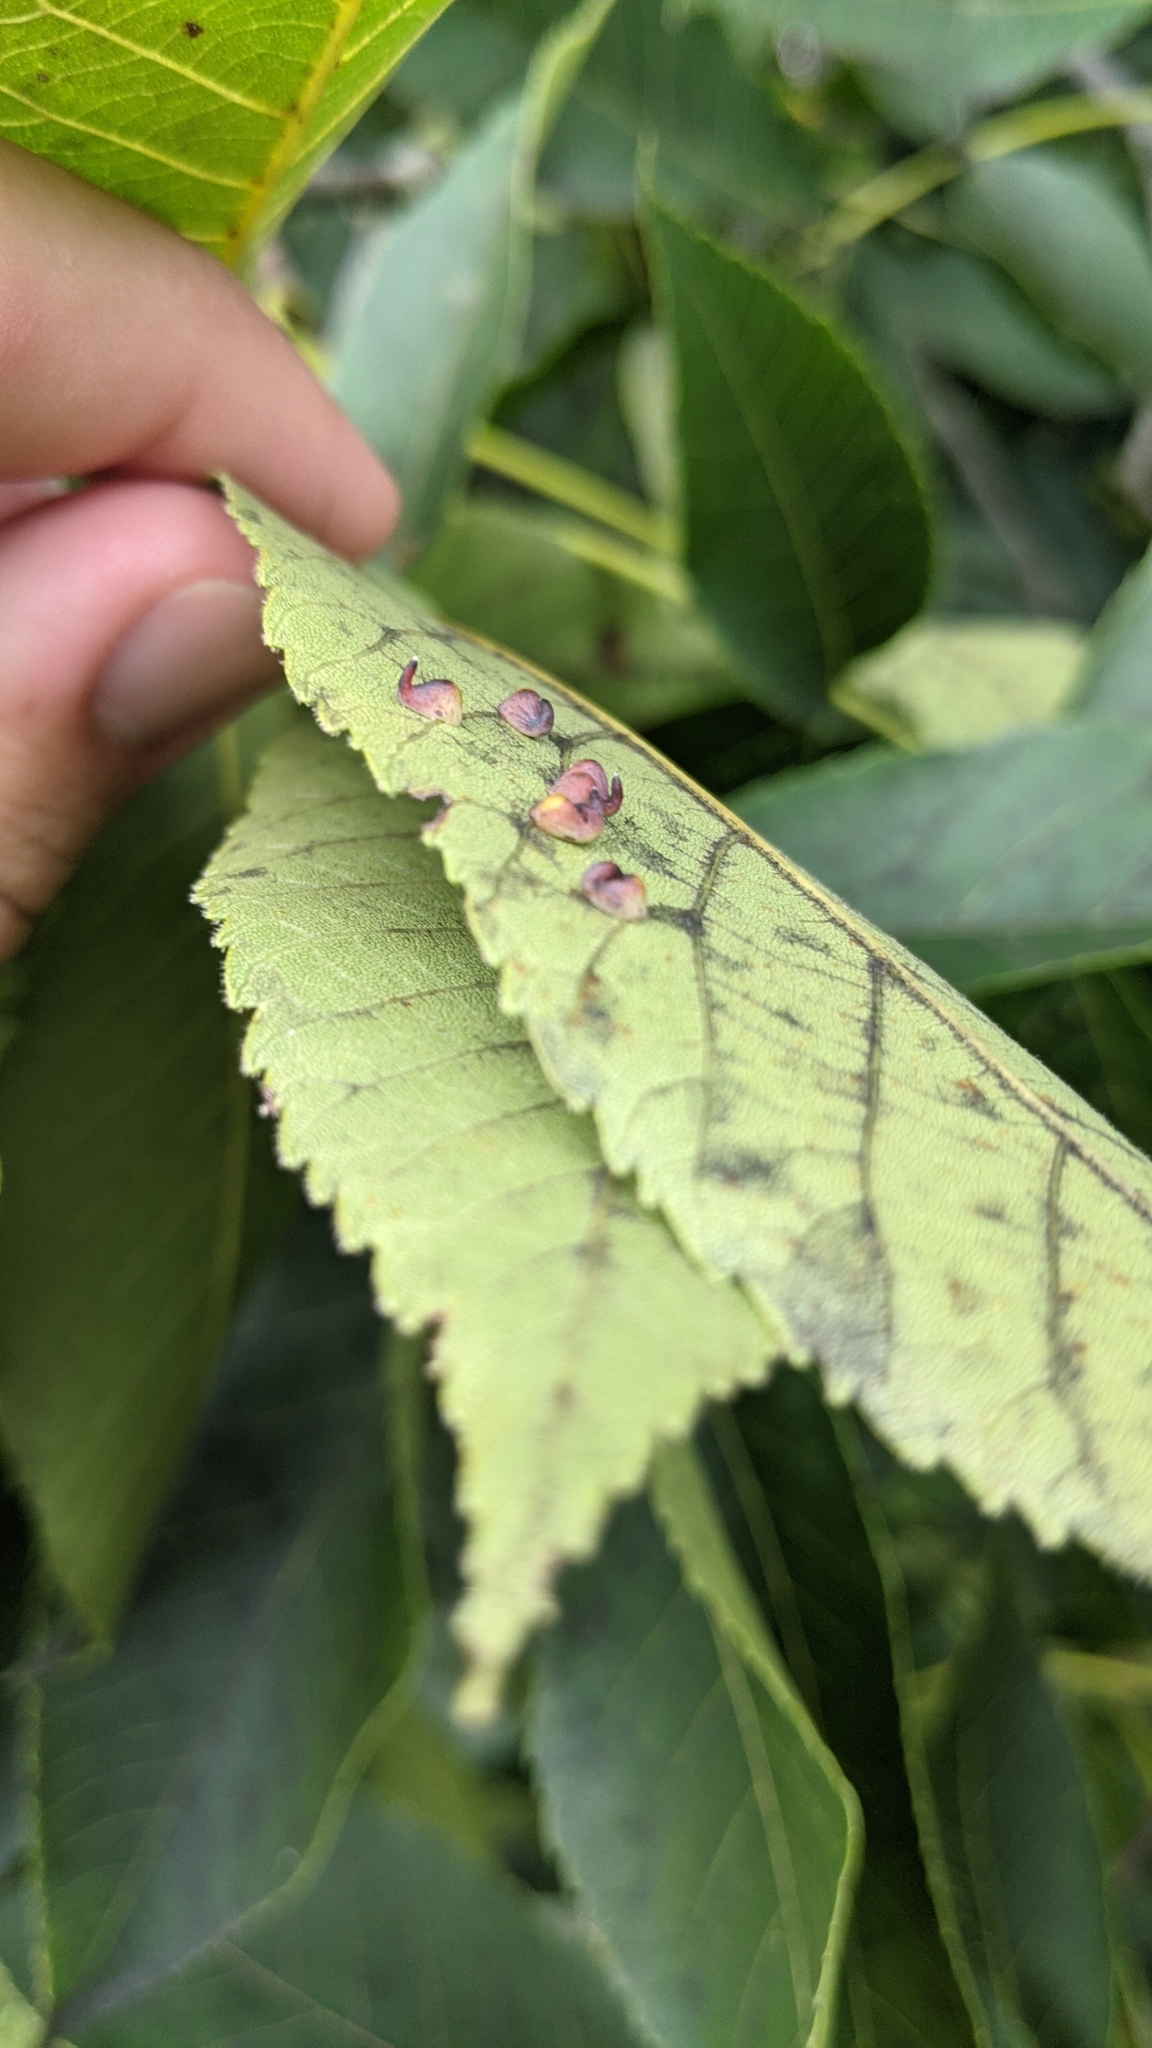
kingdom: Animalia
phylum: Arthropoda
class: Insecta
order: Diptera
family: Cecidomyiidae
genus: Caryomyia
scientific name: Caryomyia recurvata
